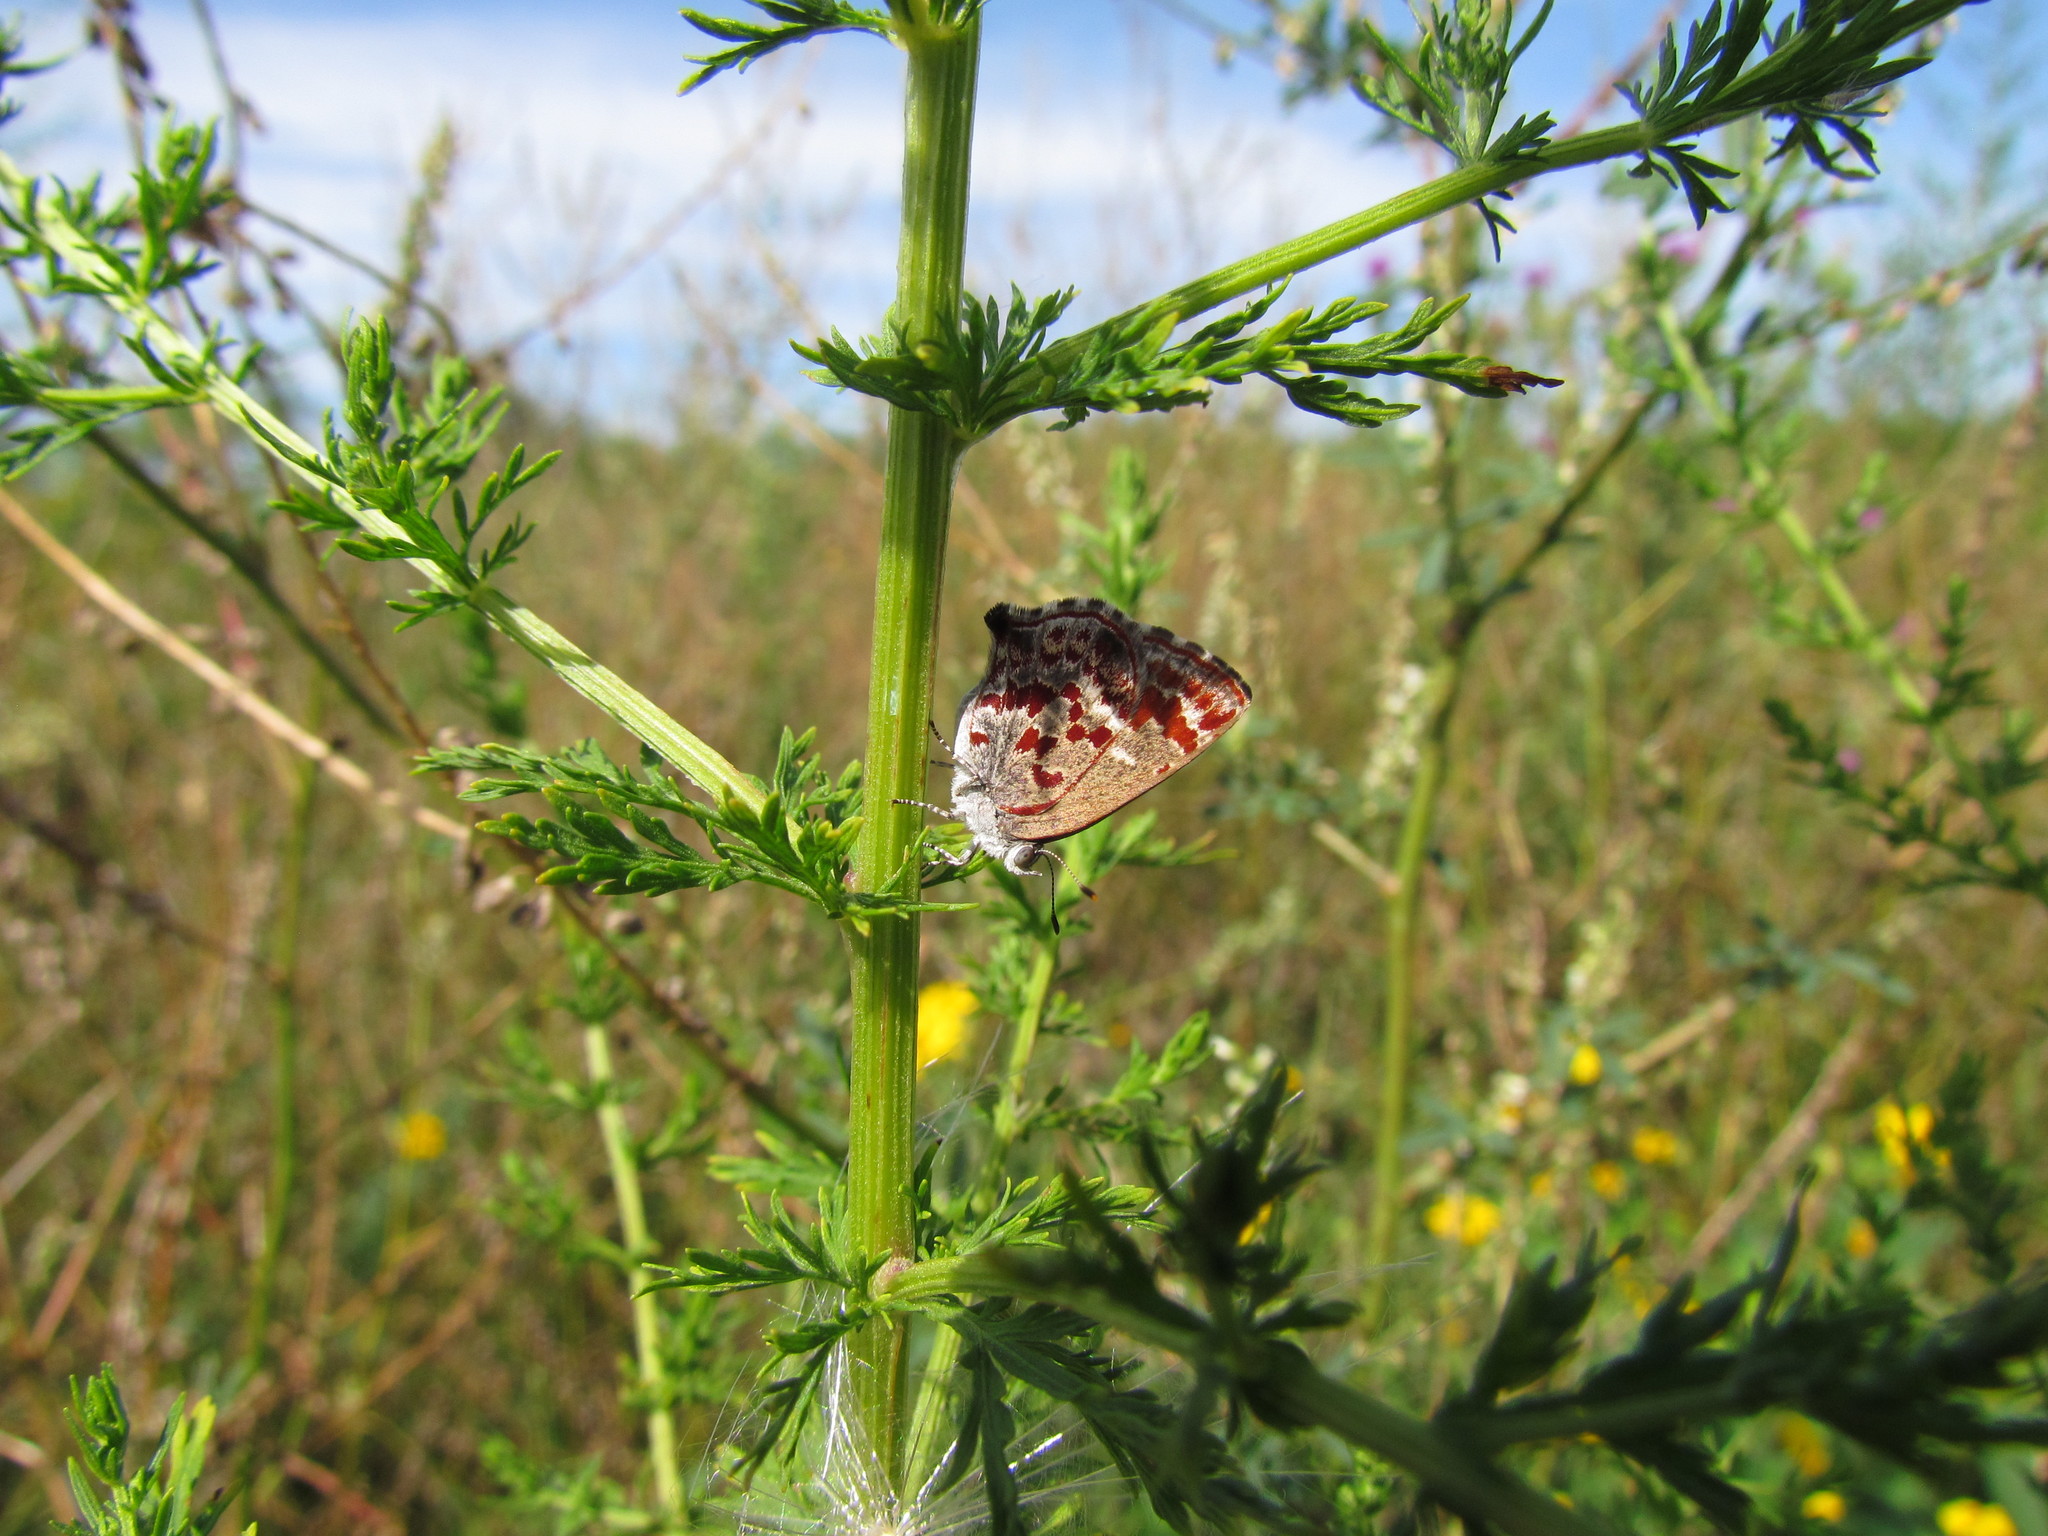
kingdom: Animalia
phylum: Arthropoda
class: Insecta
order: Lepidoptera
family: Lycaenidae
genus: Ministrymon
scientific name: Ministrymon
